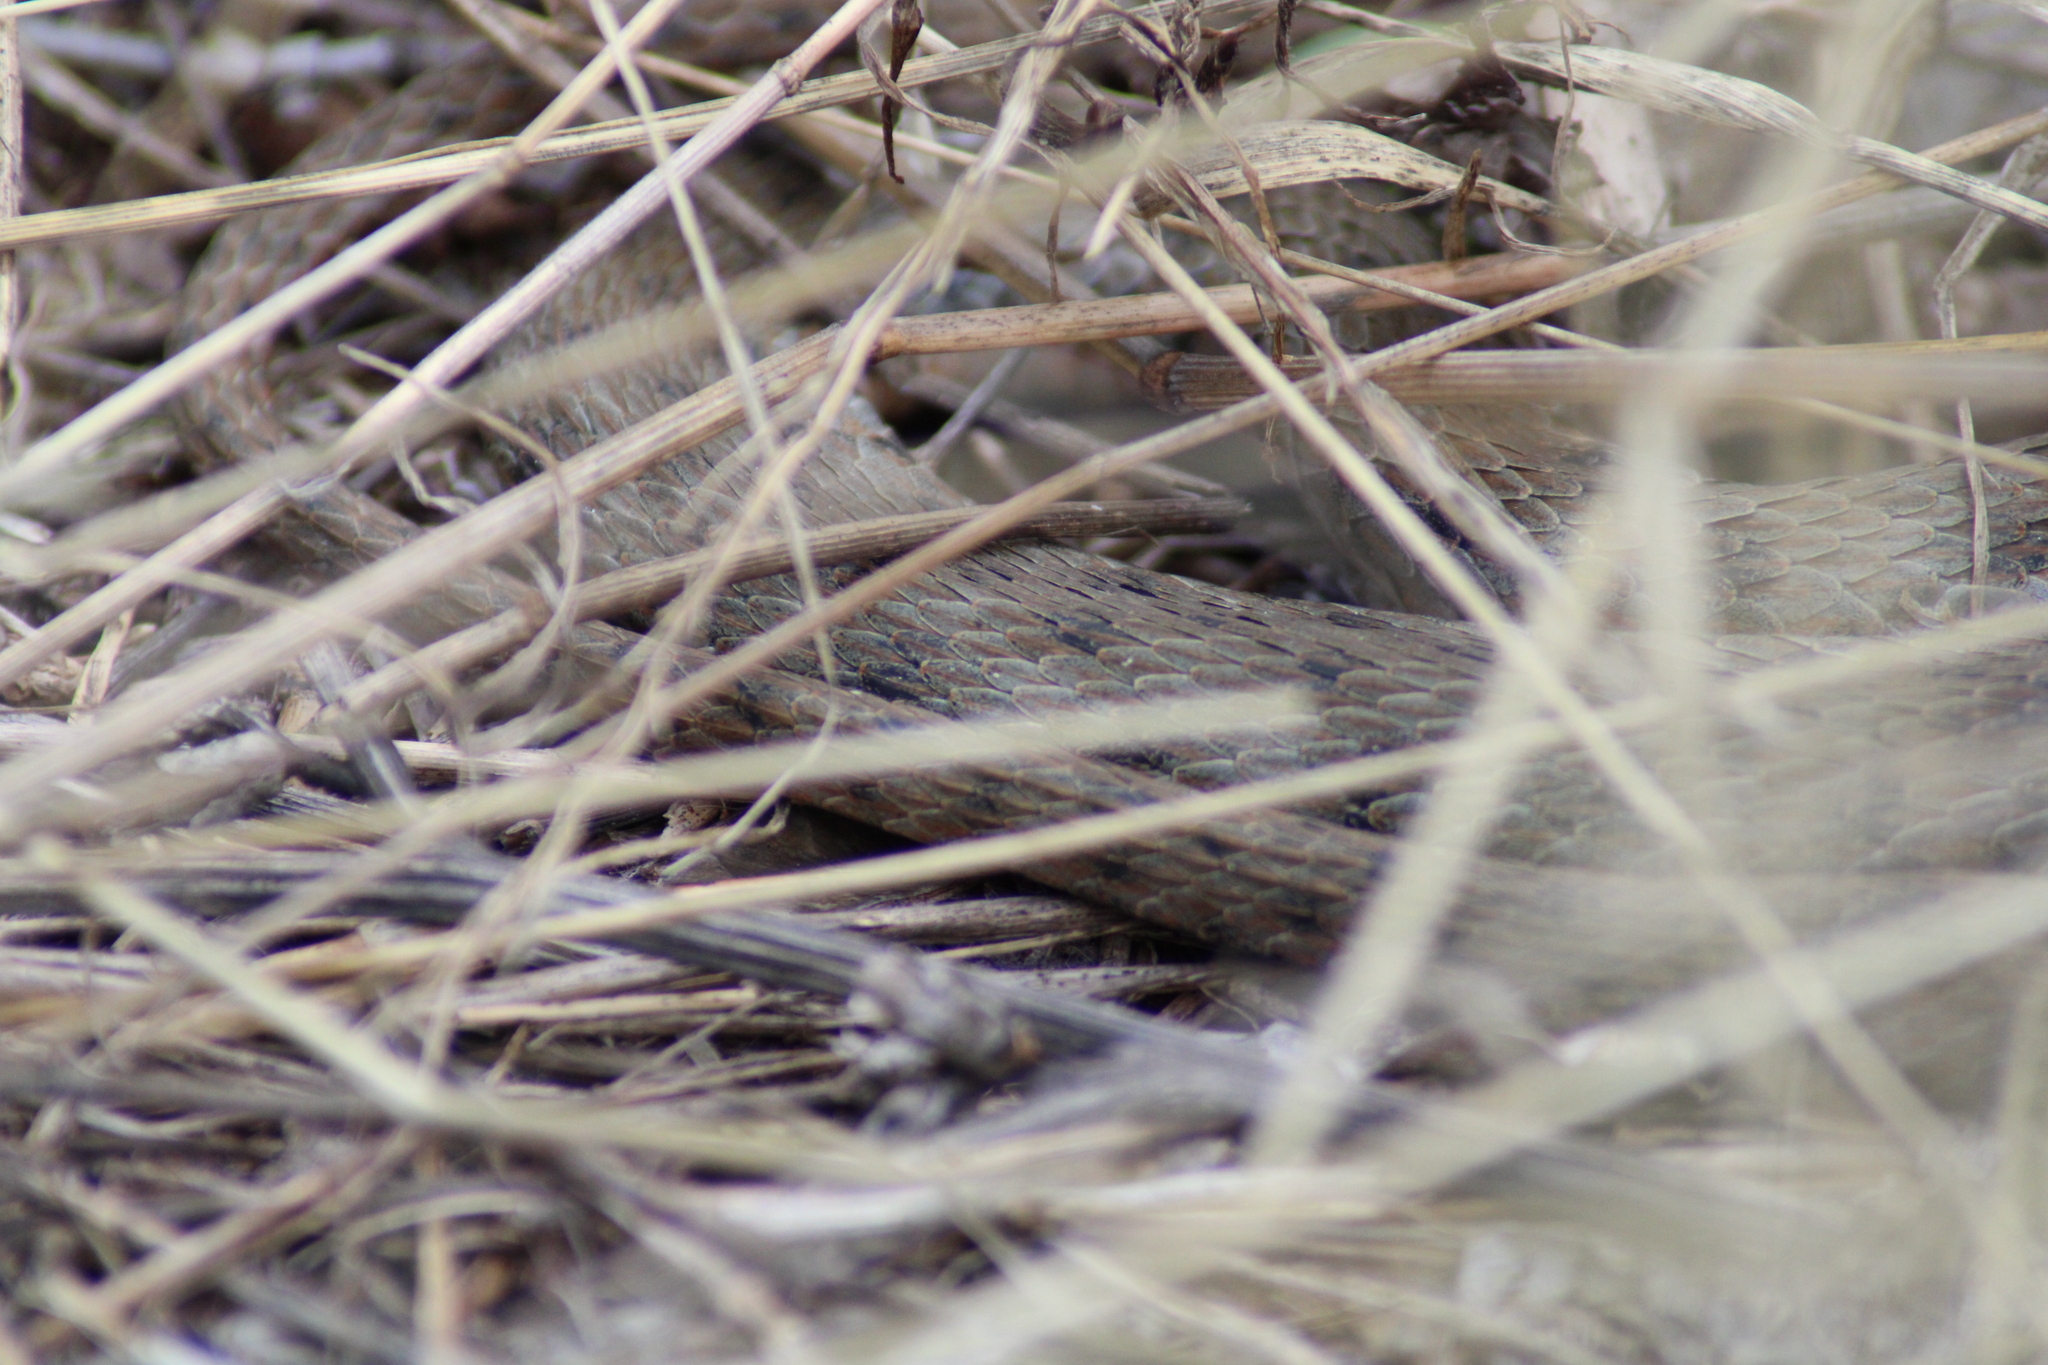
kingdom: Animalia
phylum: Chordata
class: Squamata
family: Colubridae
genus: Natrix
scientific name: Natrix tessellata
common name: Dice snake
